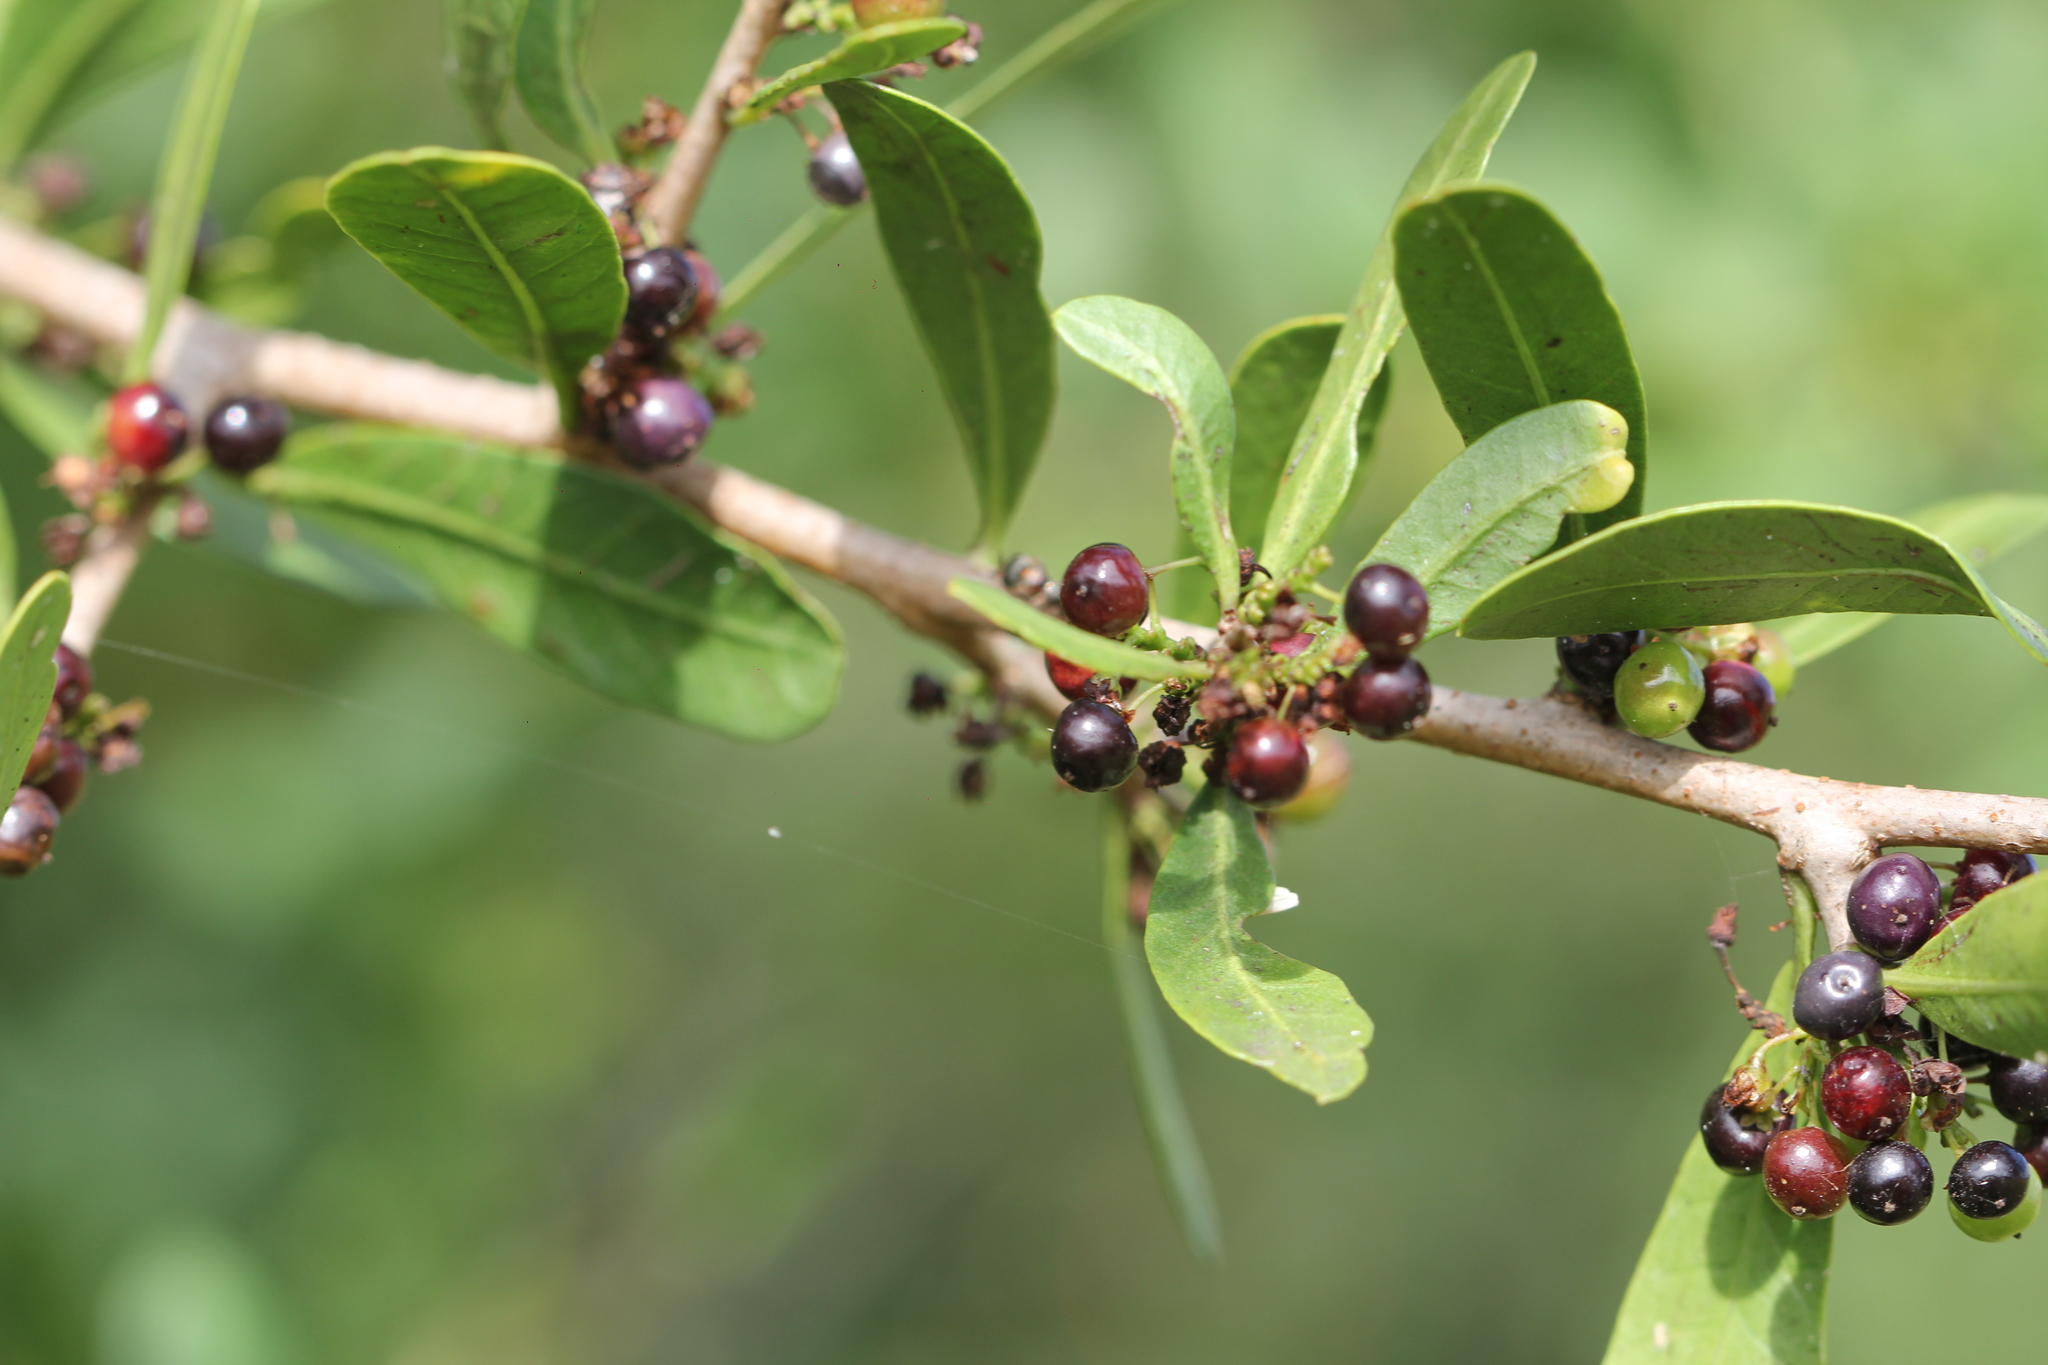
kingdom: Plantae
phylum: Tracheophyta
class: Magnoliopsida
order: Sapindales
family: Anacardiaceae
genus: Schinus
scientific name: Schinus longifolia
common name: Longleaf peppertree
